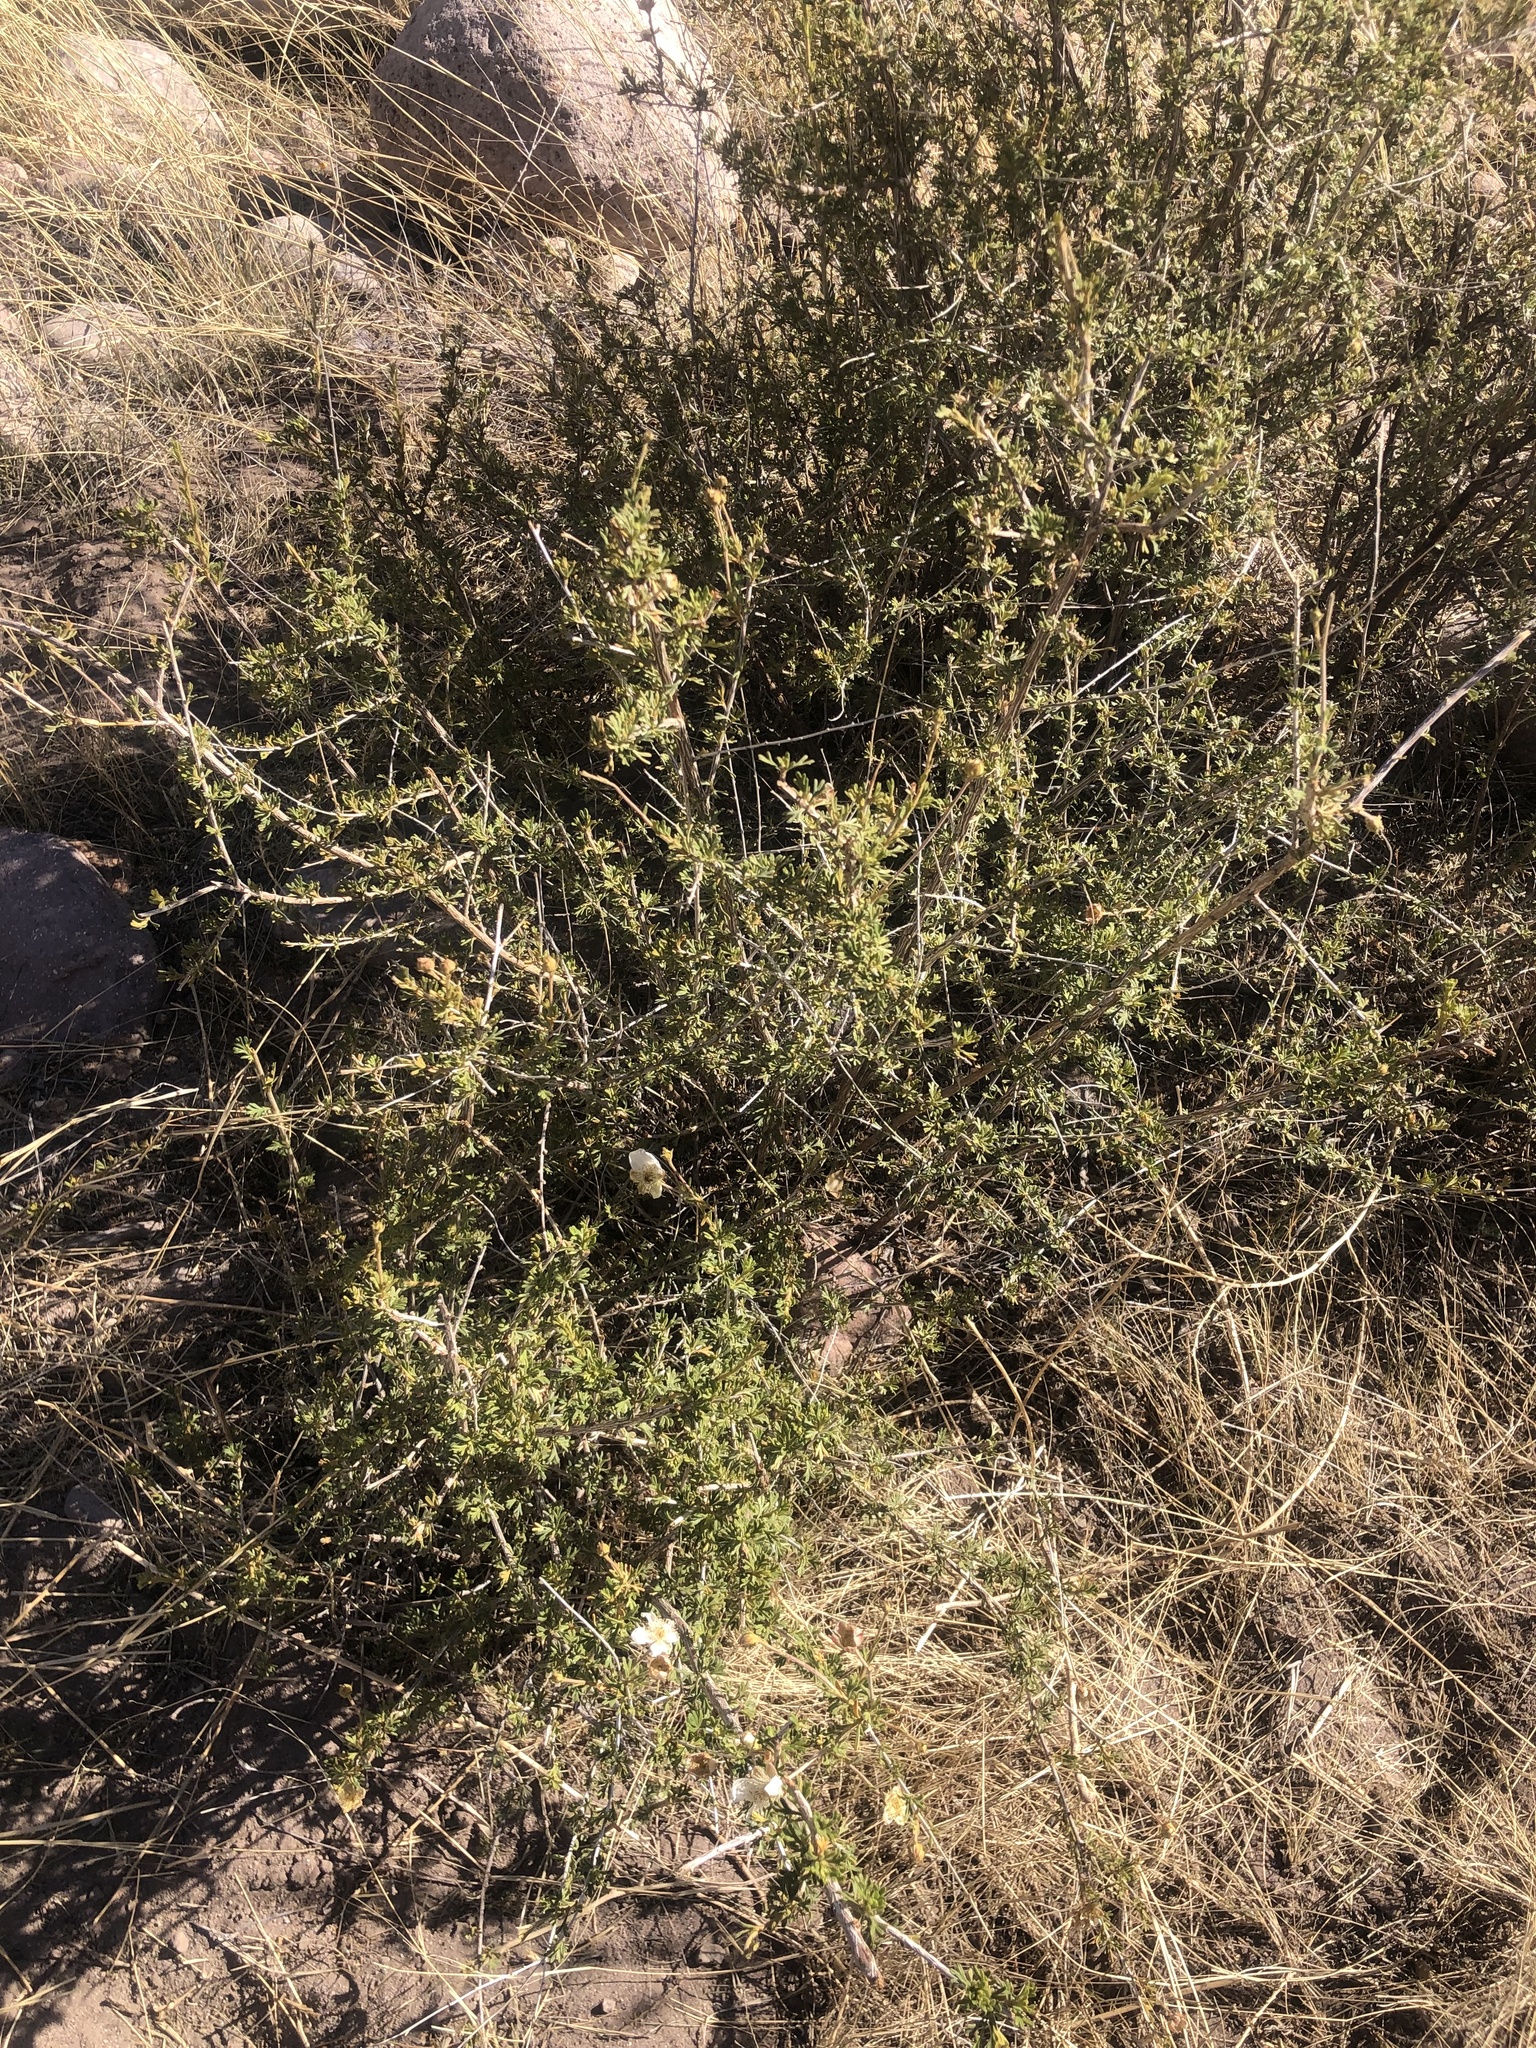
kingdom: Plantae
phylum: Tracheophyta
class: Magnoliopsida
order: Rosales
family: Rosaceae
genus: Fallugia
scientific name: Fallugia paradoxa
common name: Apache-plume
